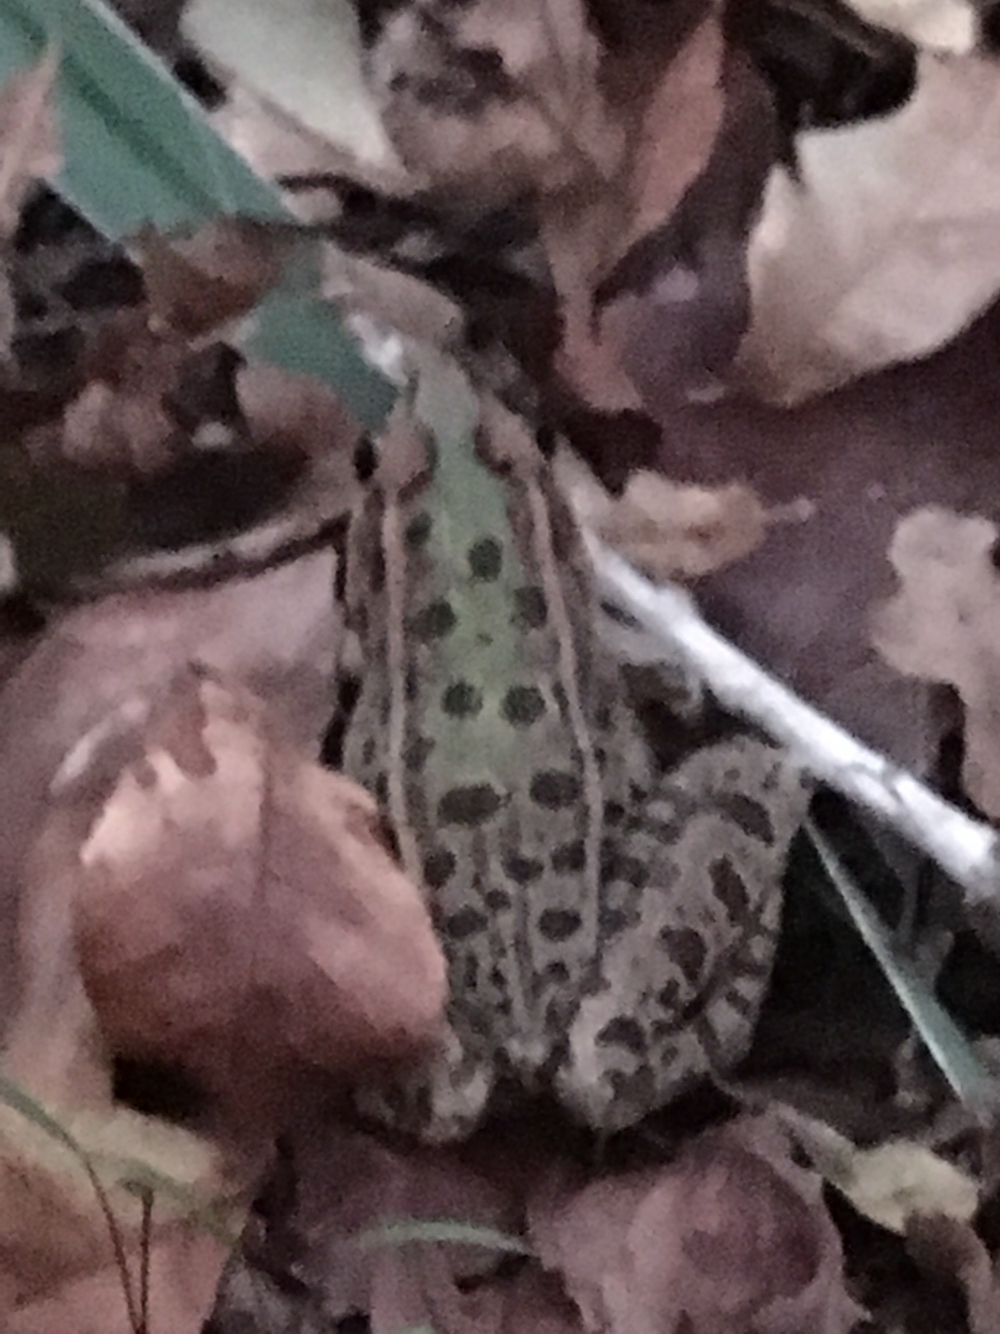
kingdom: Animalia
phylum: Chordata
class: Amphibia
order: Anura
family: Ranidae
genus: Lithobates
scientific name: Lithobates sphenocephalus
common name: Southern leopard frog
